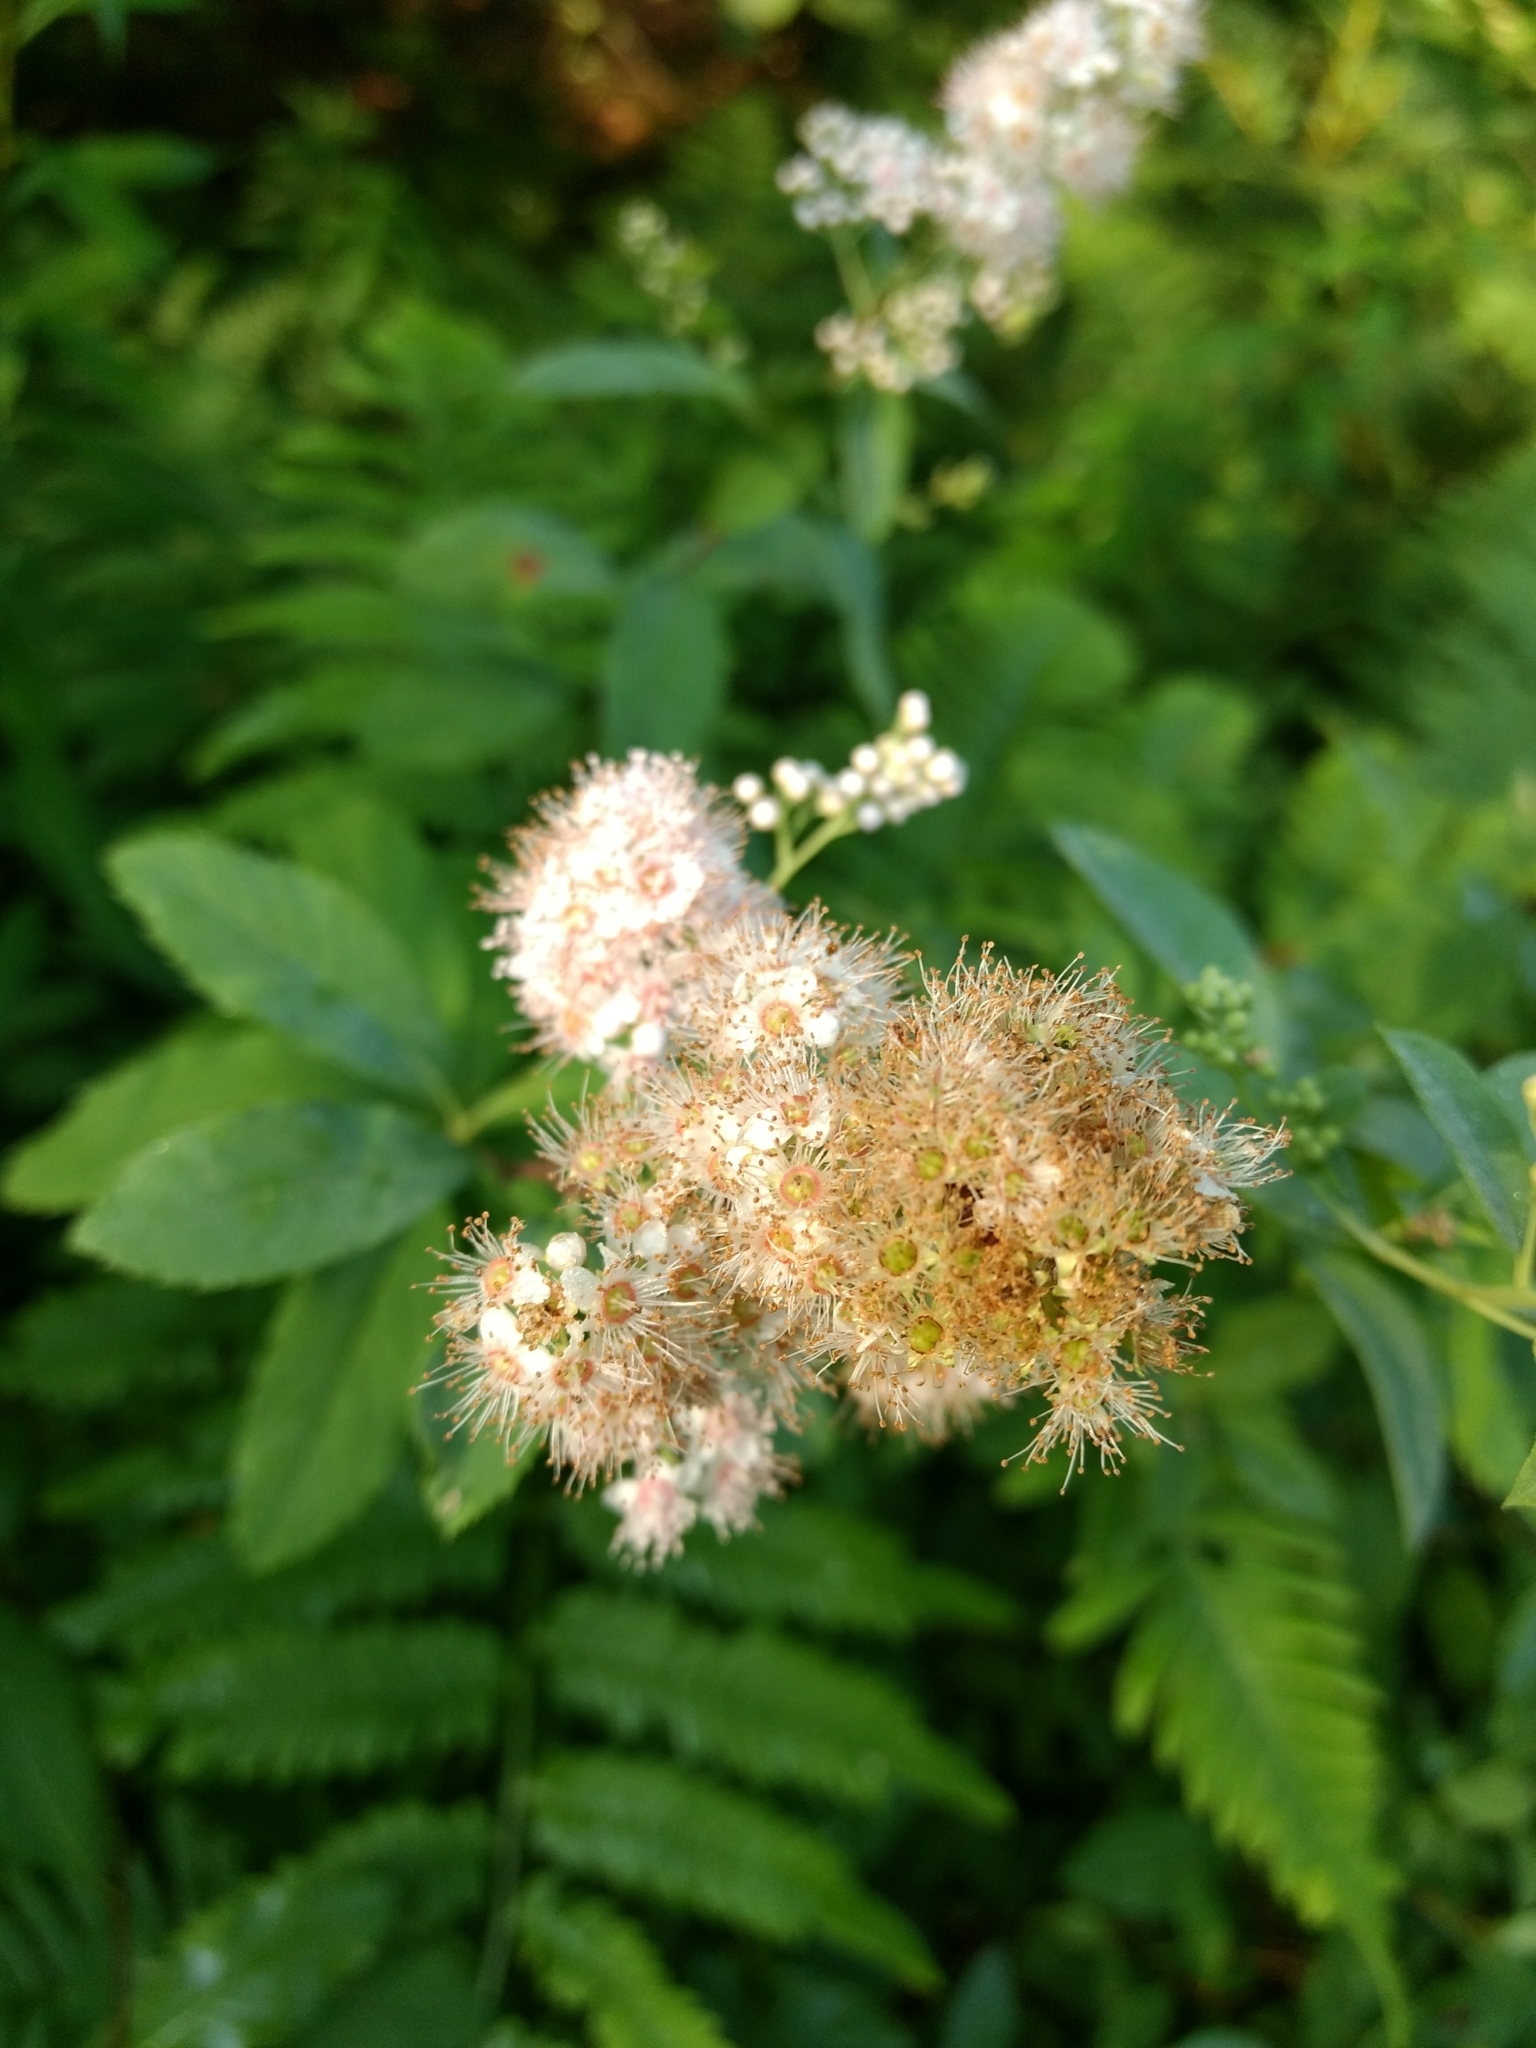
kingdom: Plantae
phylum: Tracheophyta
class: Magnoliopsida
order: Rosales
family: Rosaceae
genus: Spiraea
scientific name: Spiraea alba
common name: Pale bridewort
